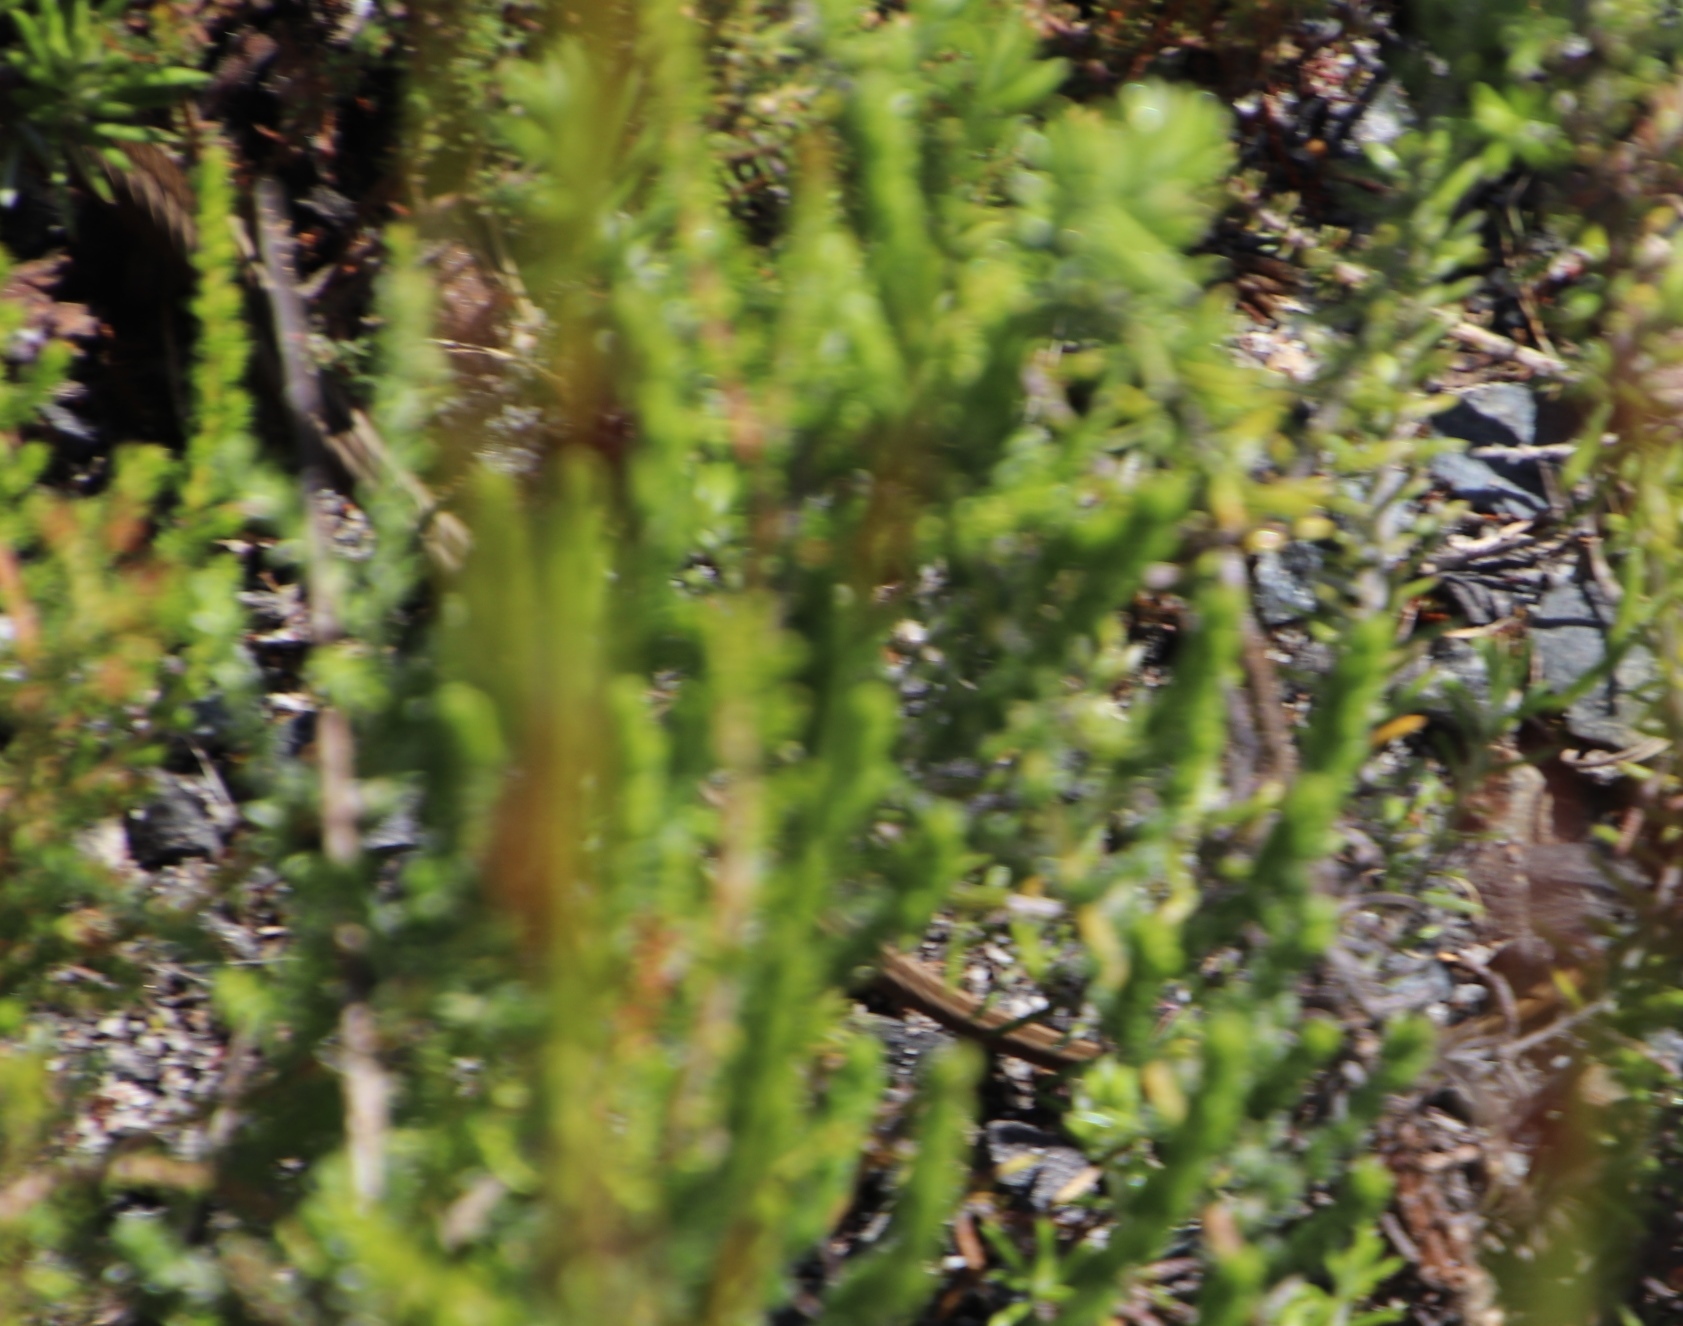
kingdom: Animalia
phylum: Chordata
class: Squamata
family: Psammophiidae
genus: Psammophis
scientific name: Psammophis crucifer
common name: Cross-marked grass snake
